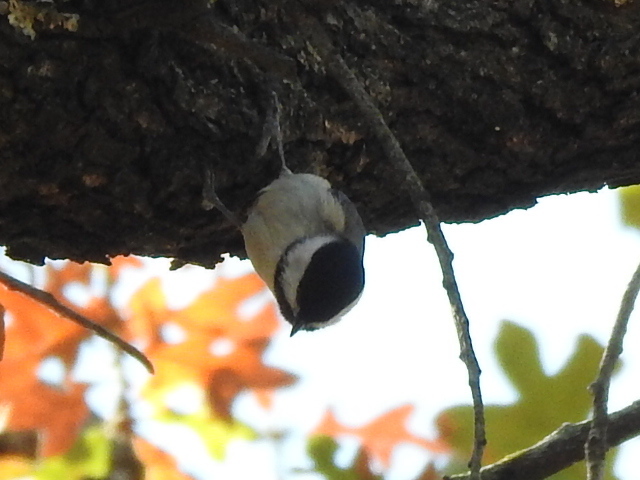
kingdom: Animalia
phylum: Chordata
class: Aves
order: Passeriformes
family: Paridae
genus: Poecile
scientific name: Poecile carolinensis
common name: Carolina chickadee
